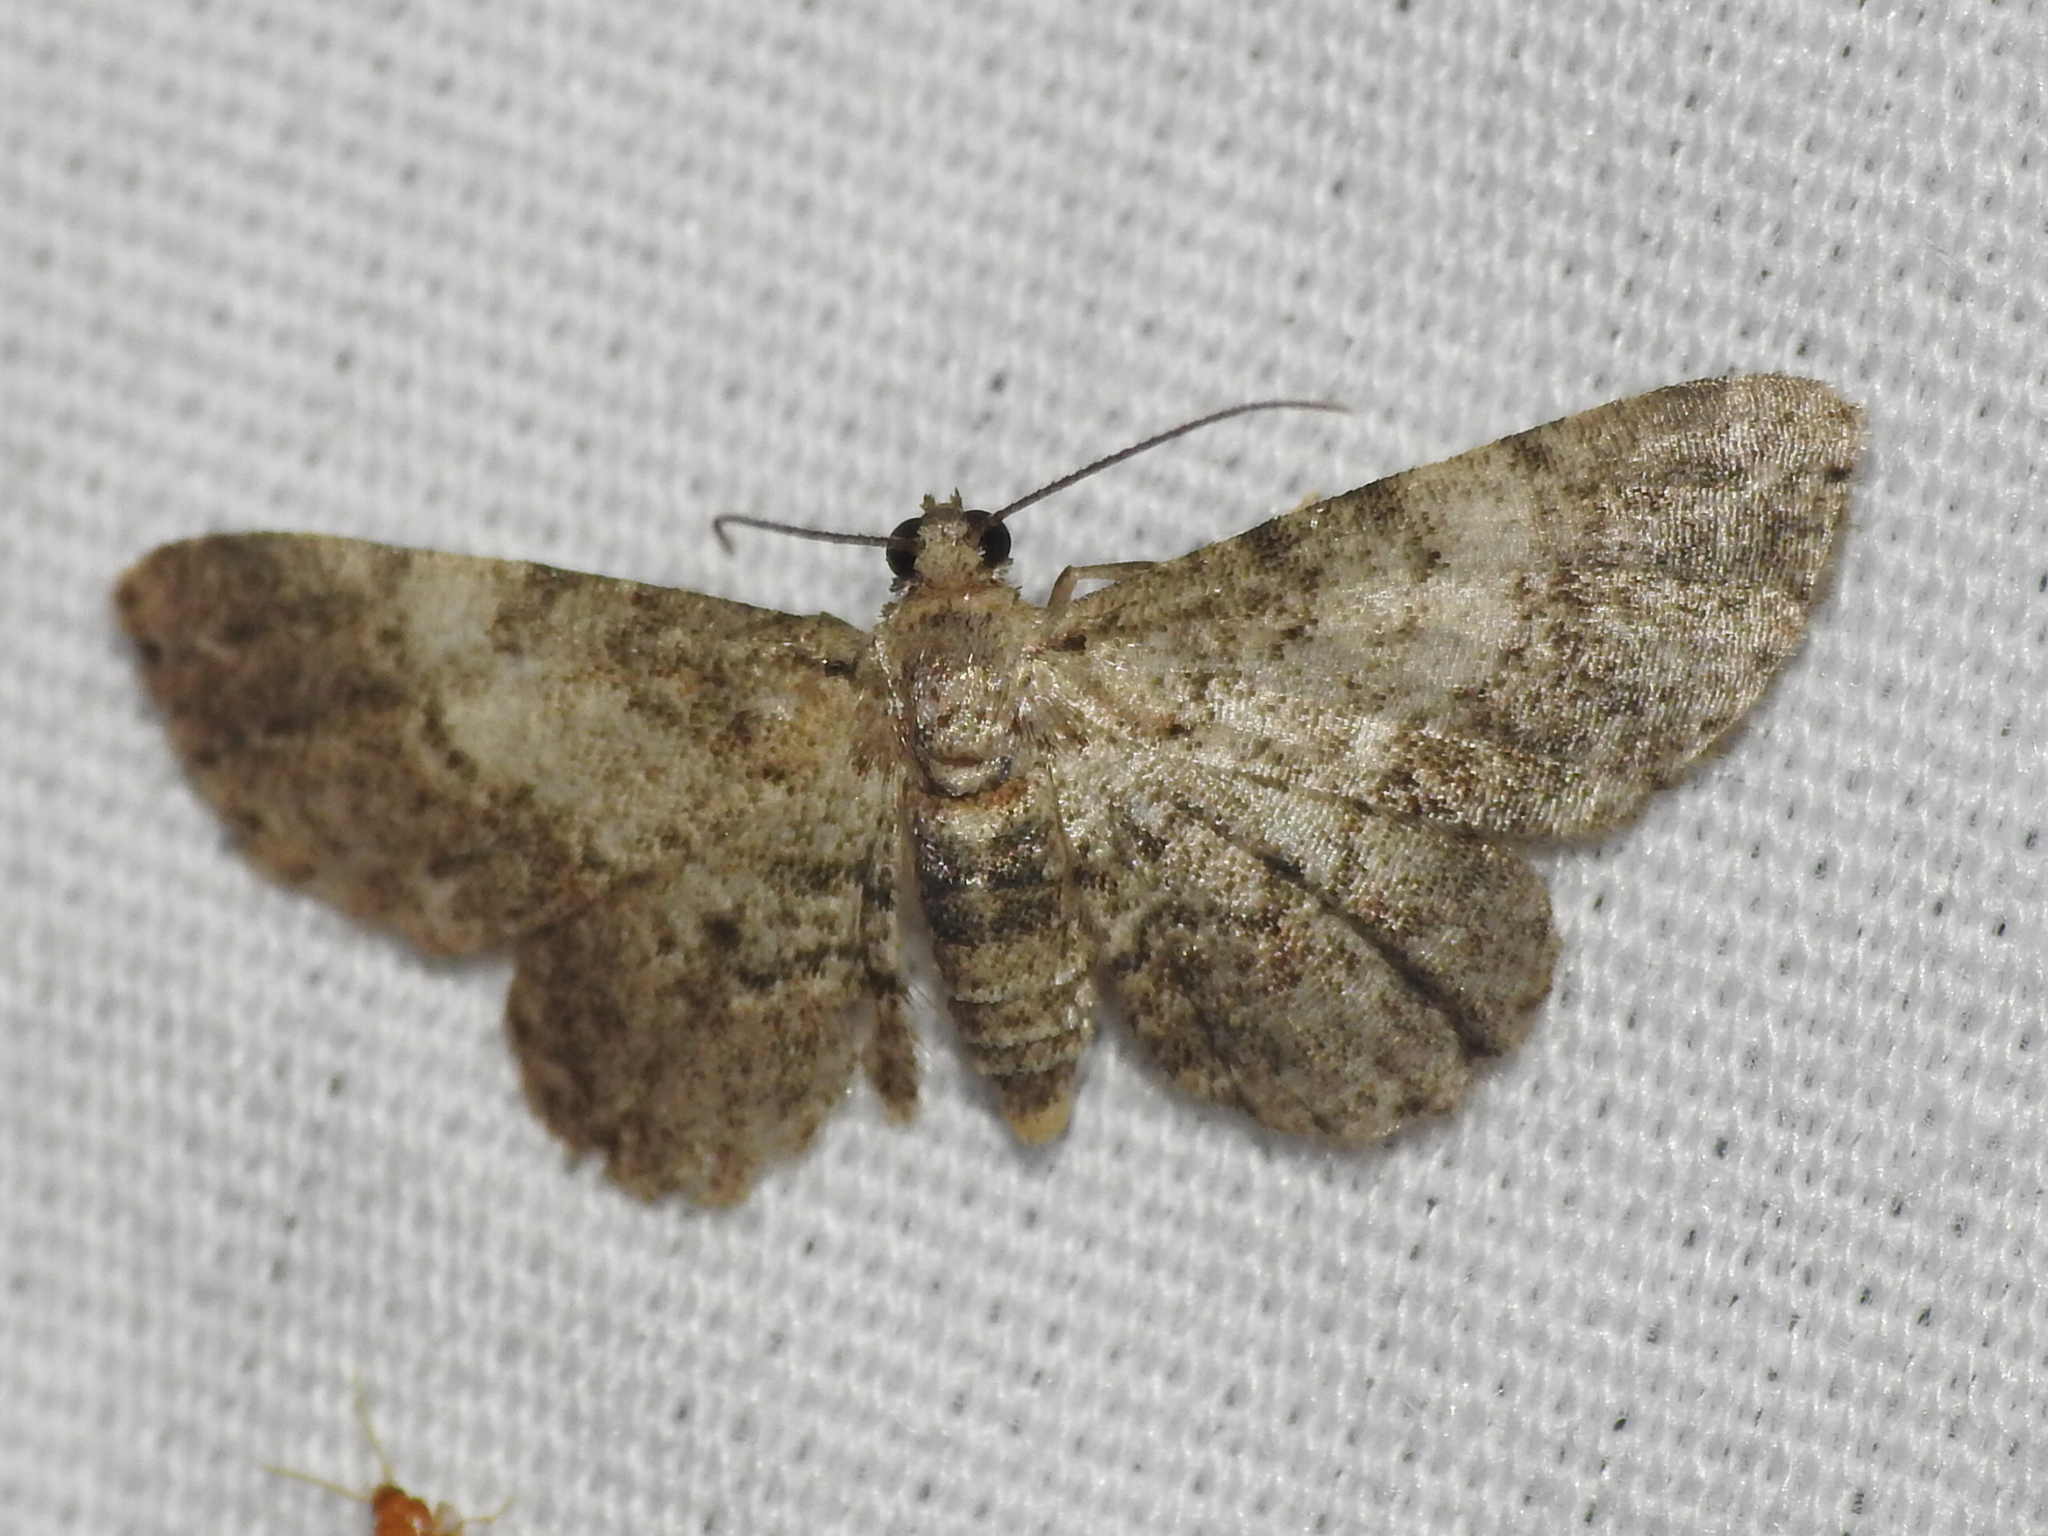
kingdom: Animalia
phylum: Arthropoda
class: Insecta
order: Lepidoptera
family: Geometridae
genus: Glenoides
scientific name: Glenoides texanaria
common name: Texas gray
